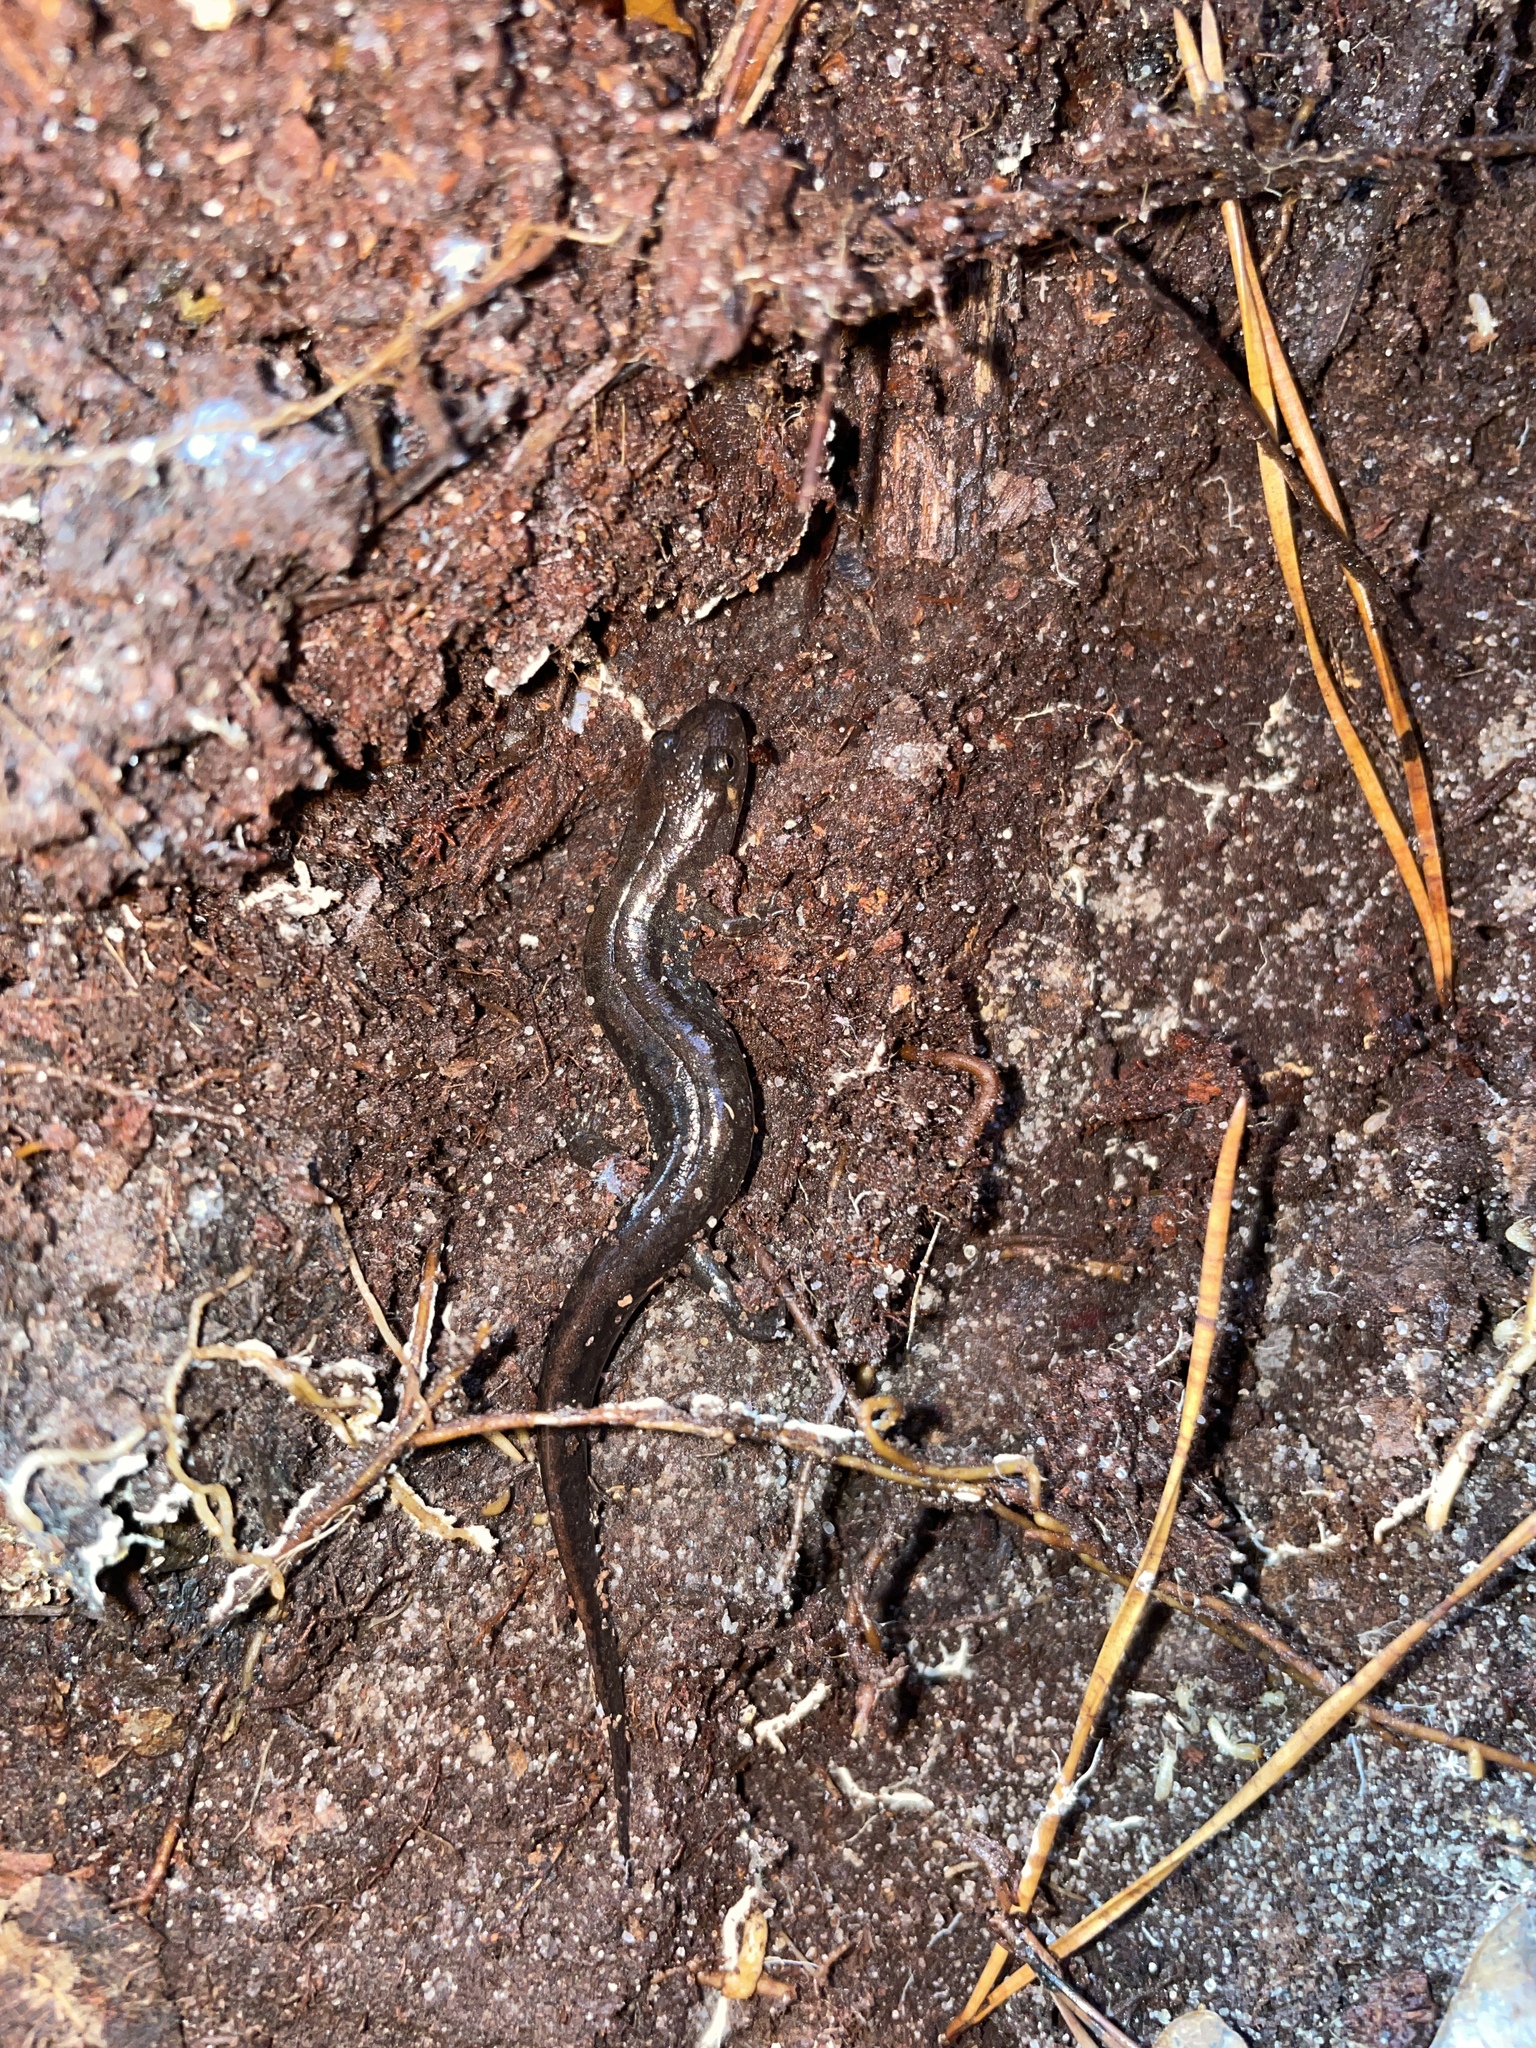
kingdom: Animalia
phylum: Chordata
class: Amphibia
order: Caudata
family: Plethodontidae
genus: Desmognathus
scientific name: Desmognathus conanti
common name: Spotted dusky salamander
